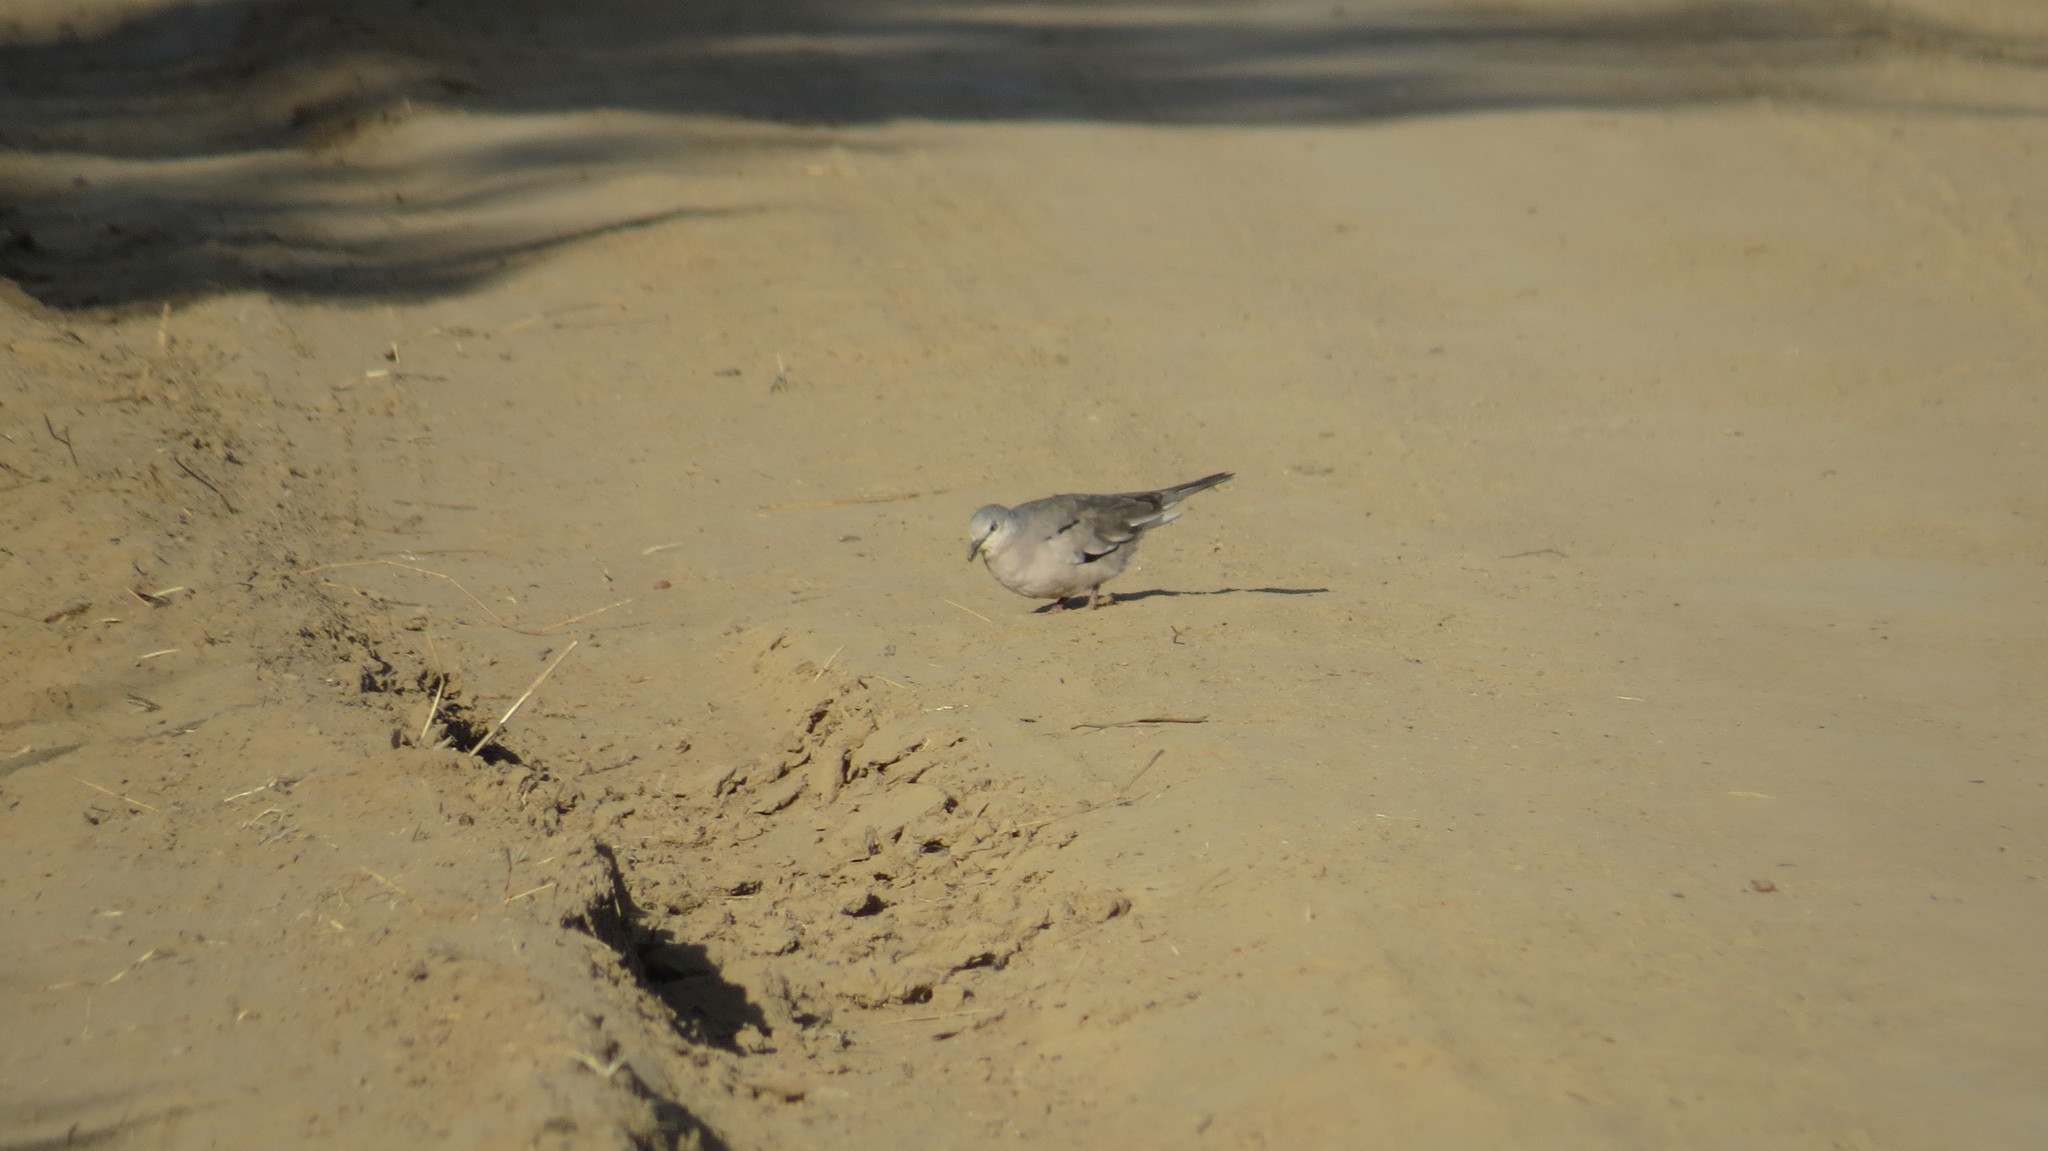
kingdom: Animalia
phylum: Chordata
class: Aves
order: Columbiformes
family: Columbidae
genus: Columbina
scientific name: Columbina picui
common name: Picui ground dove
